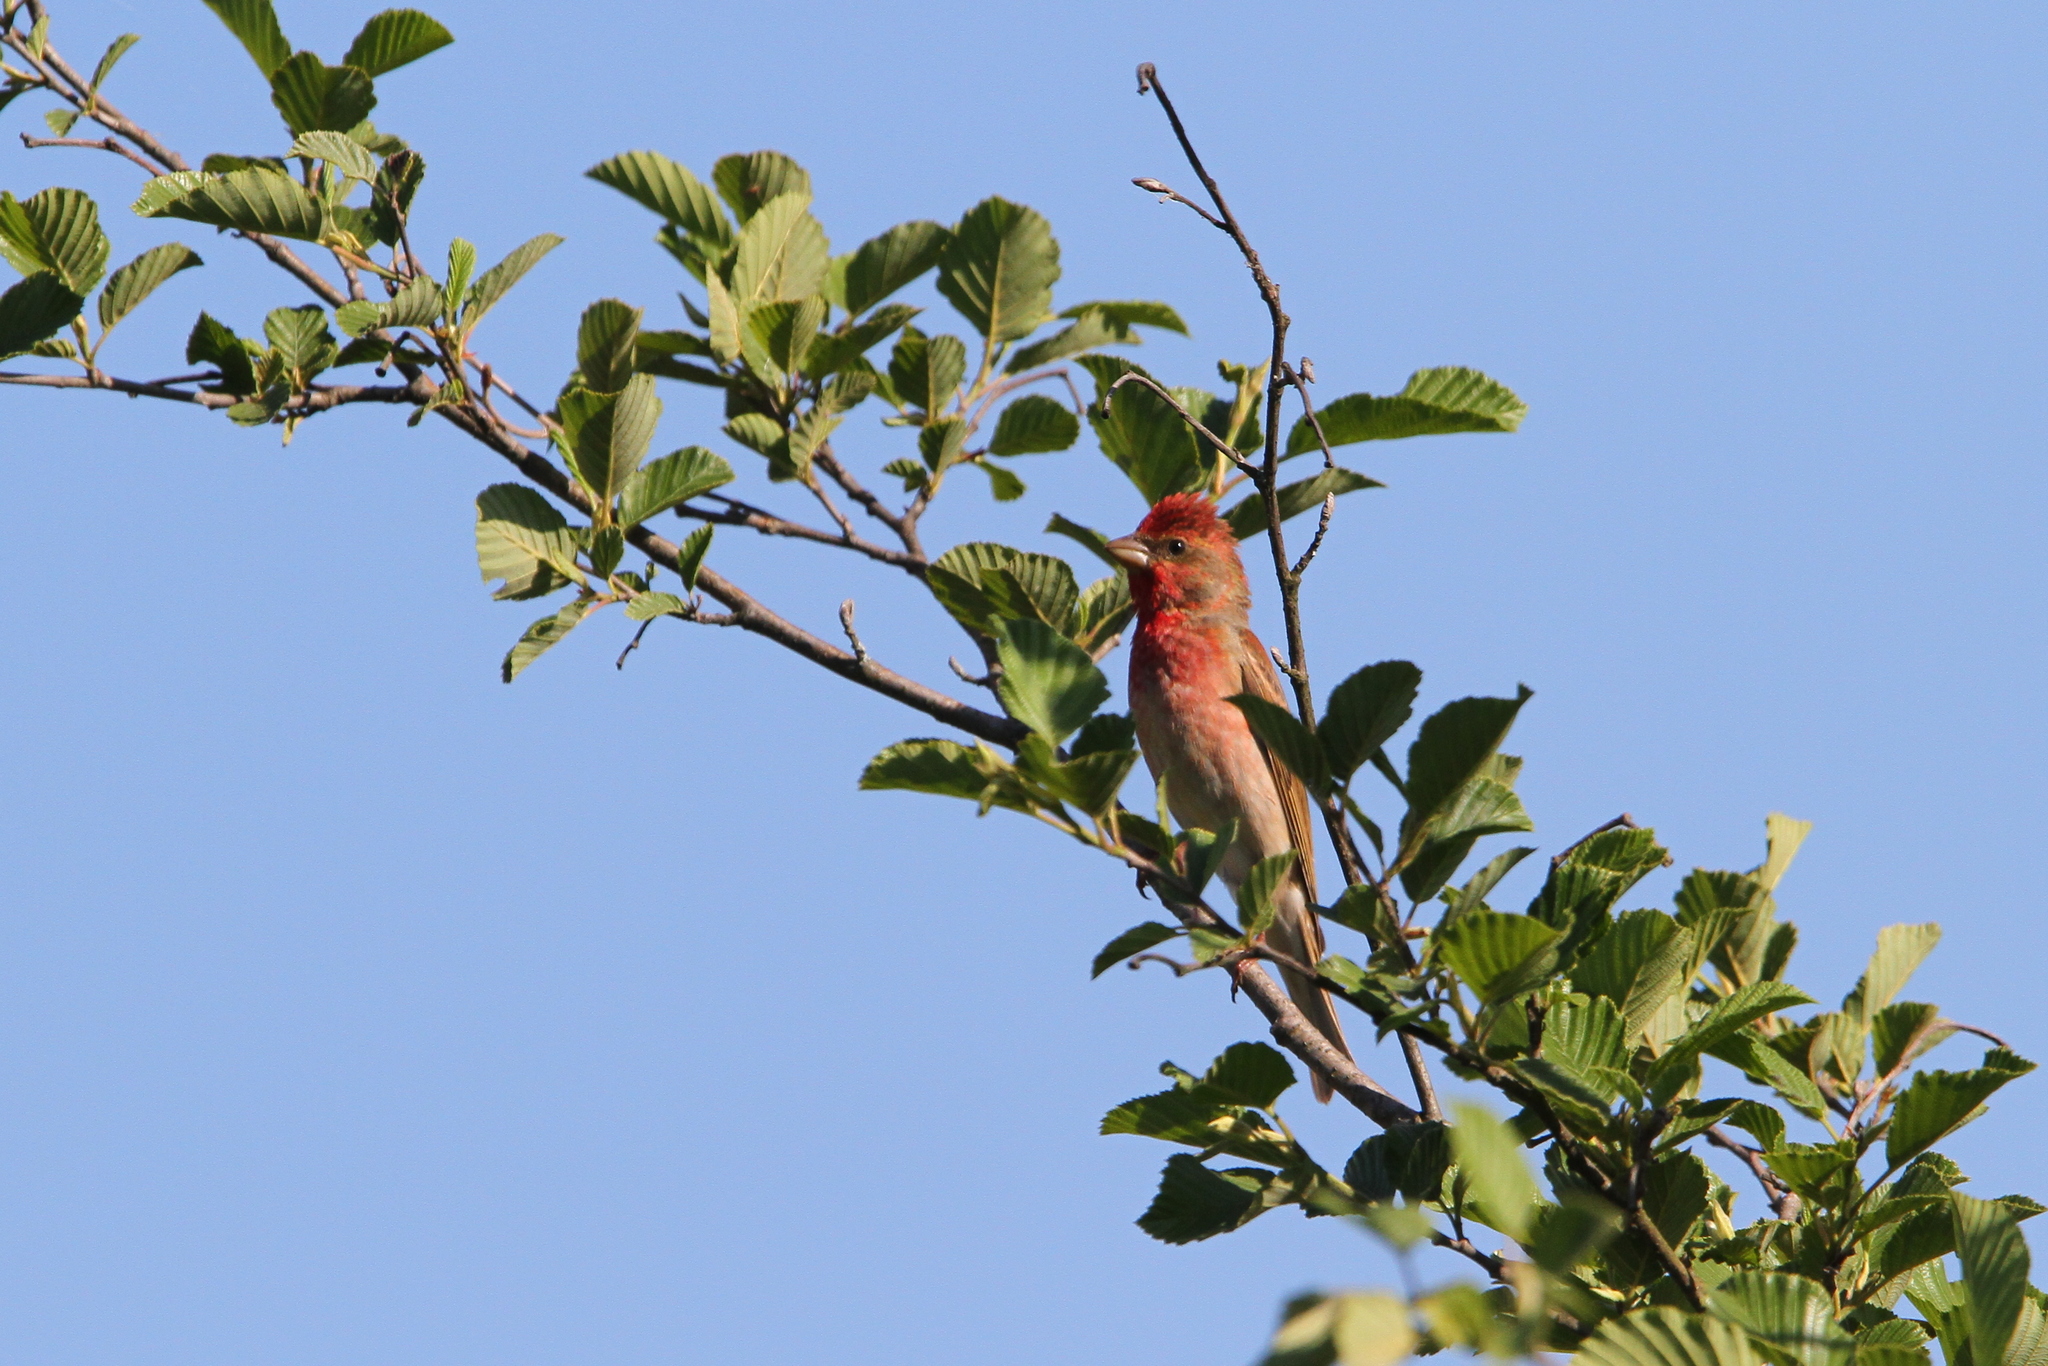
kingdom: Animalia
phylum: Chordata
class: Aves
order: Passeriformes
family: Fringillidae
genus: Carpodacus
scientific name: Carpodacus erythrinus
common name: Common rosefinch
